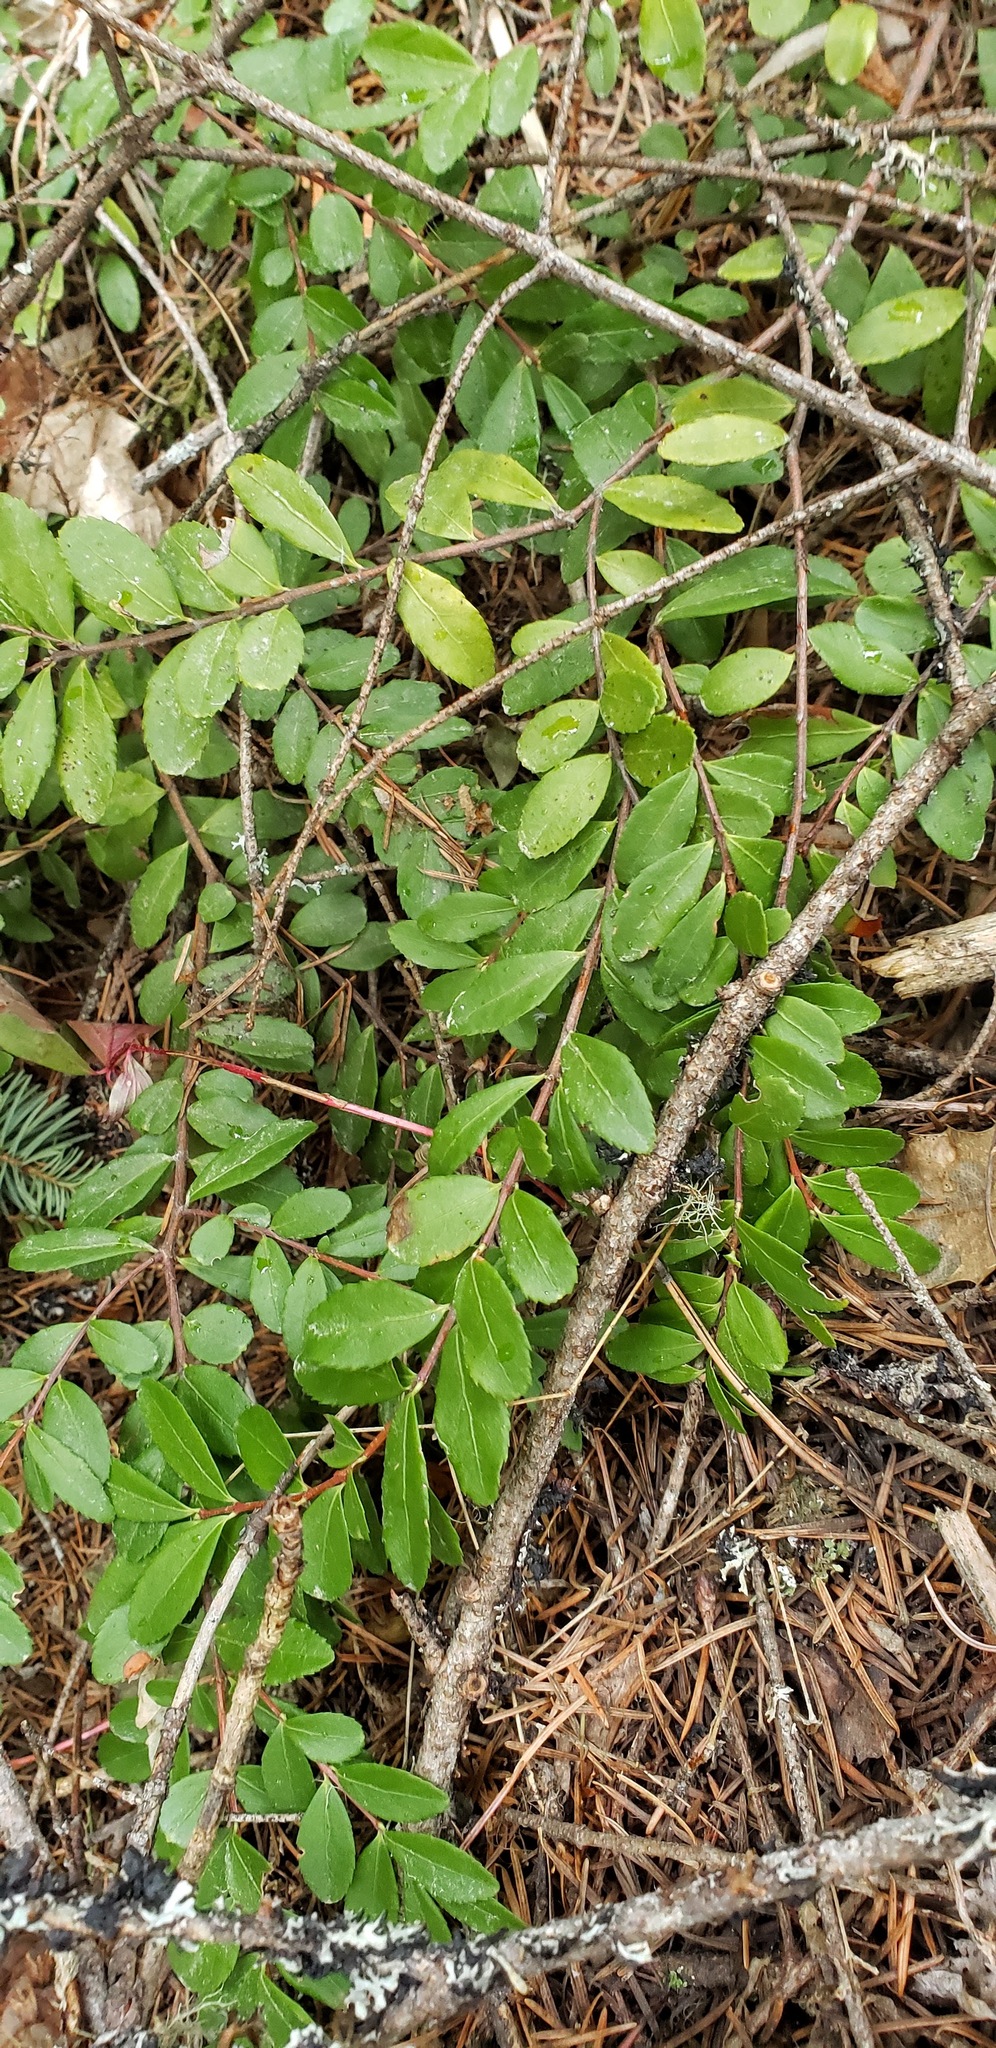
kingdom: Plantae
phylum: Tracheophyta
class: Magnoliopsida
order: Celastrales
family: Celastraceae
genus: Paxistima
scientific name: Paxistima myrsinites
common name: Mountain-lover
